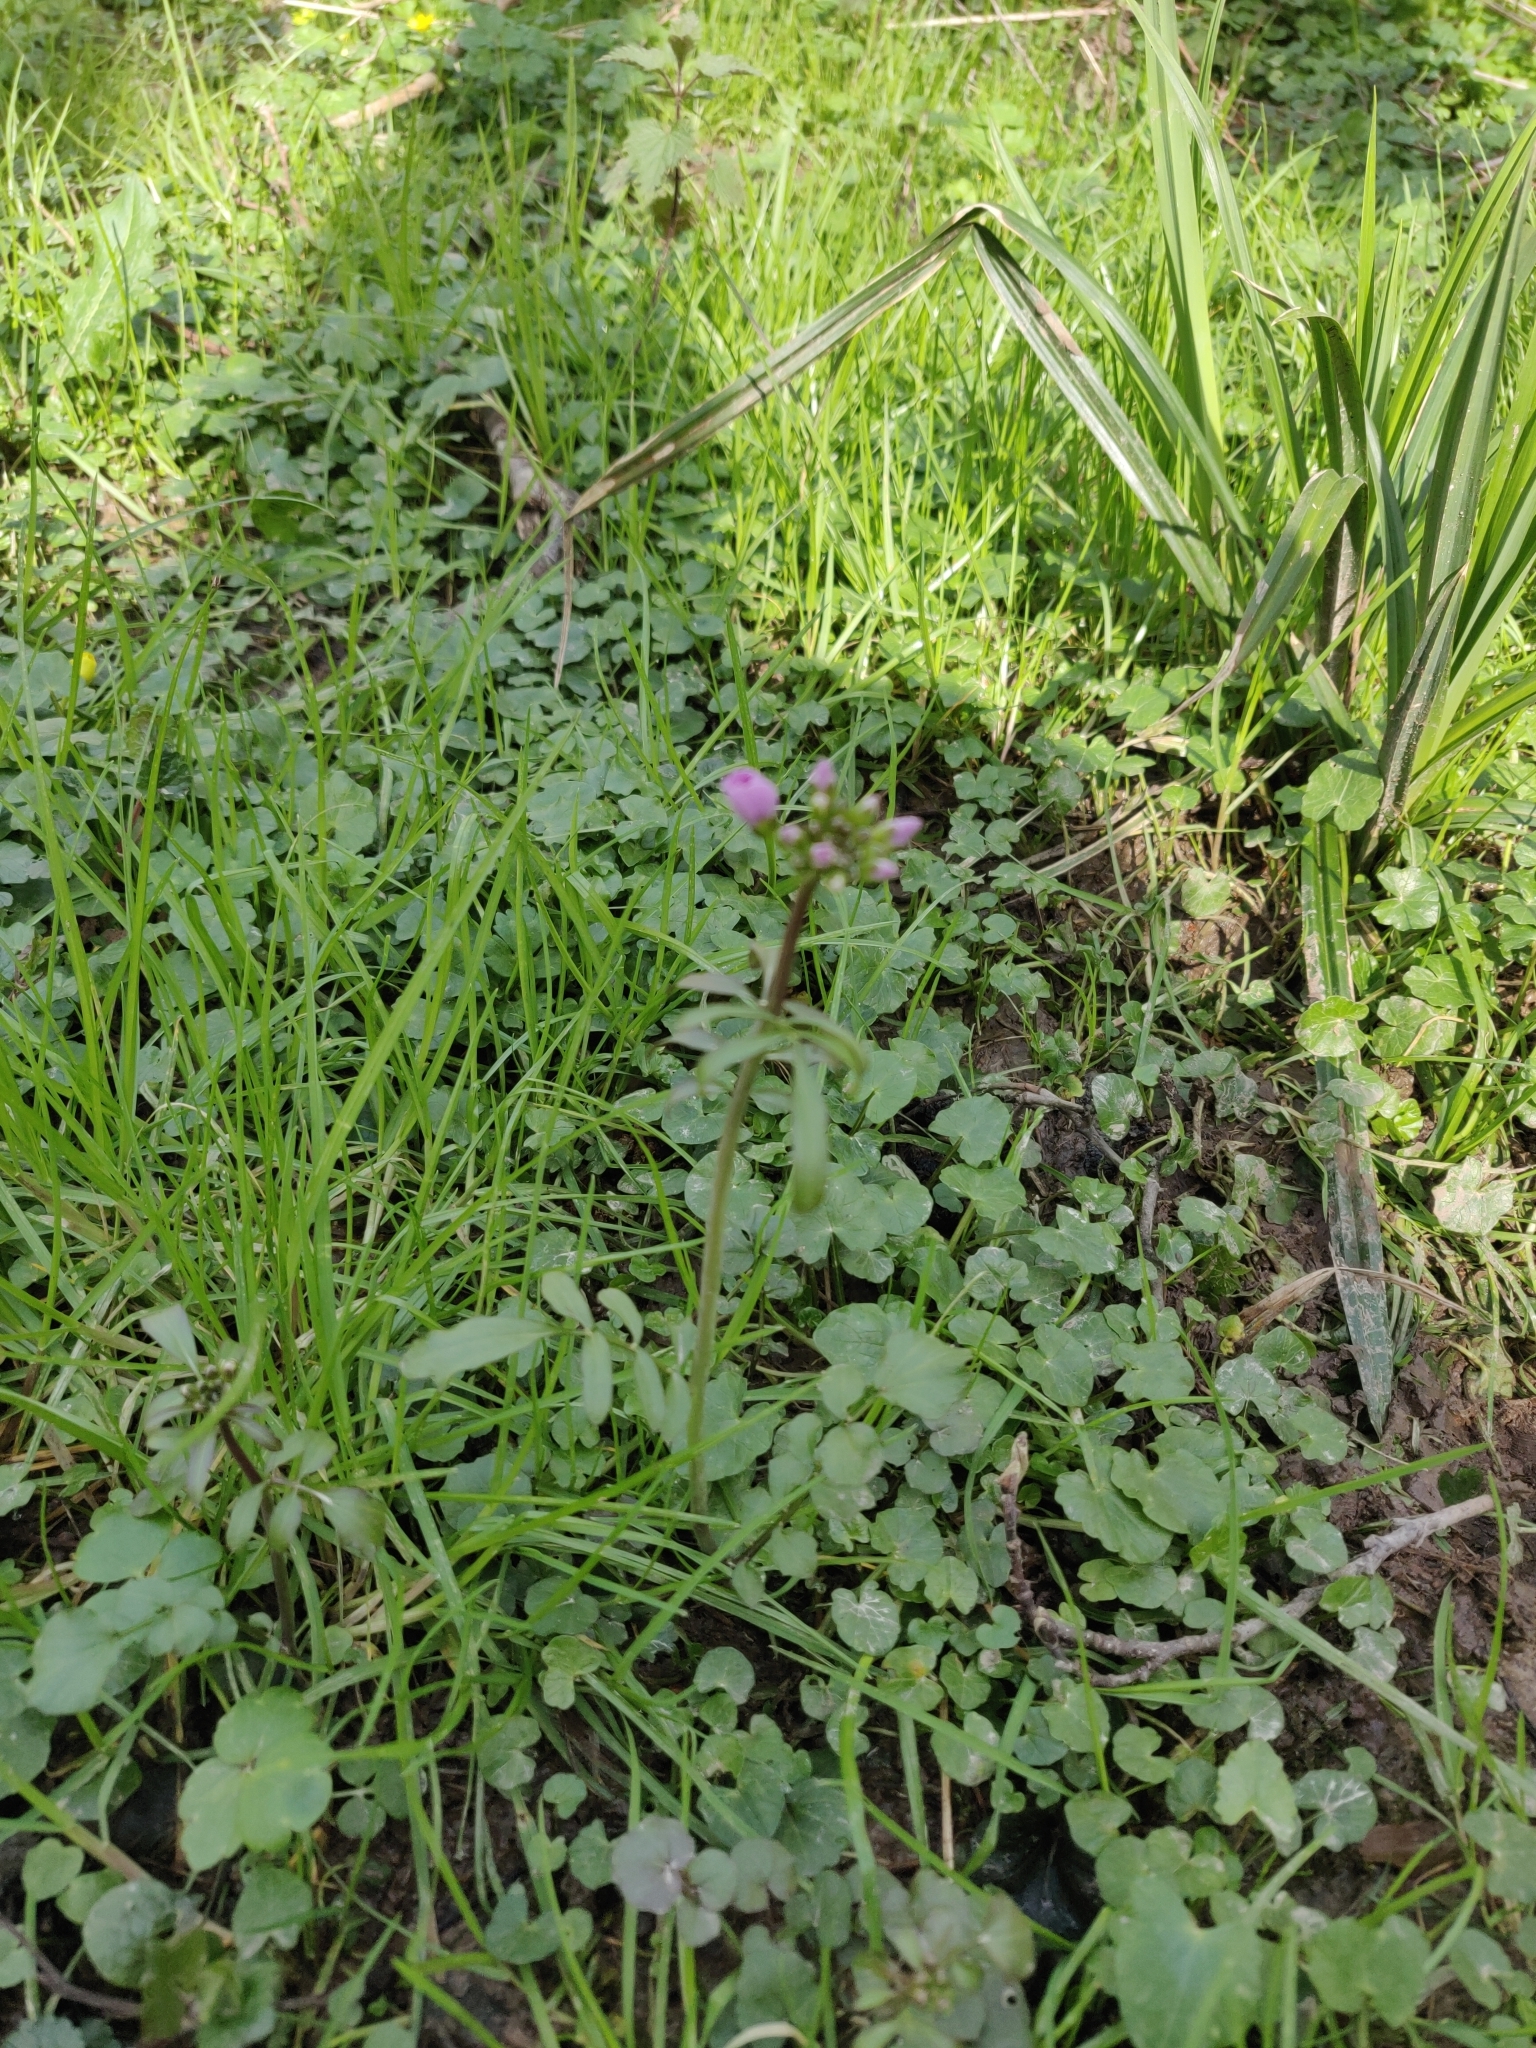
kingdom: Plantae
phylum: Tracheophyta
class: Magnoliopsida
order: Brassicales
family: Brassicaceae
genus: Cardamine
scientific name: Cardamine pratensis
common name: Cuckoo flower
